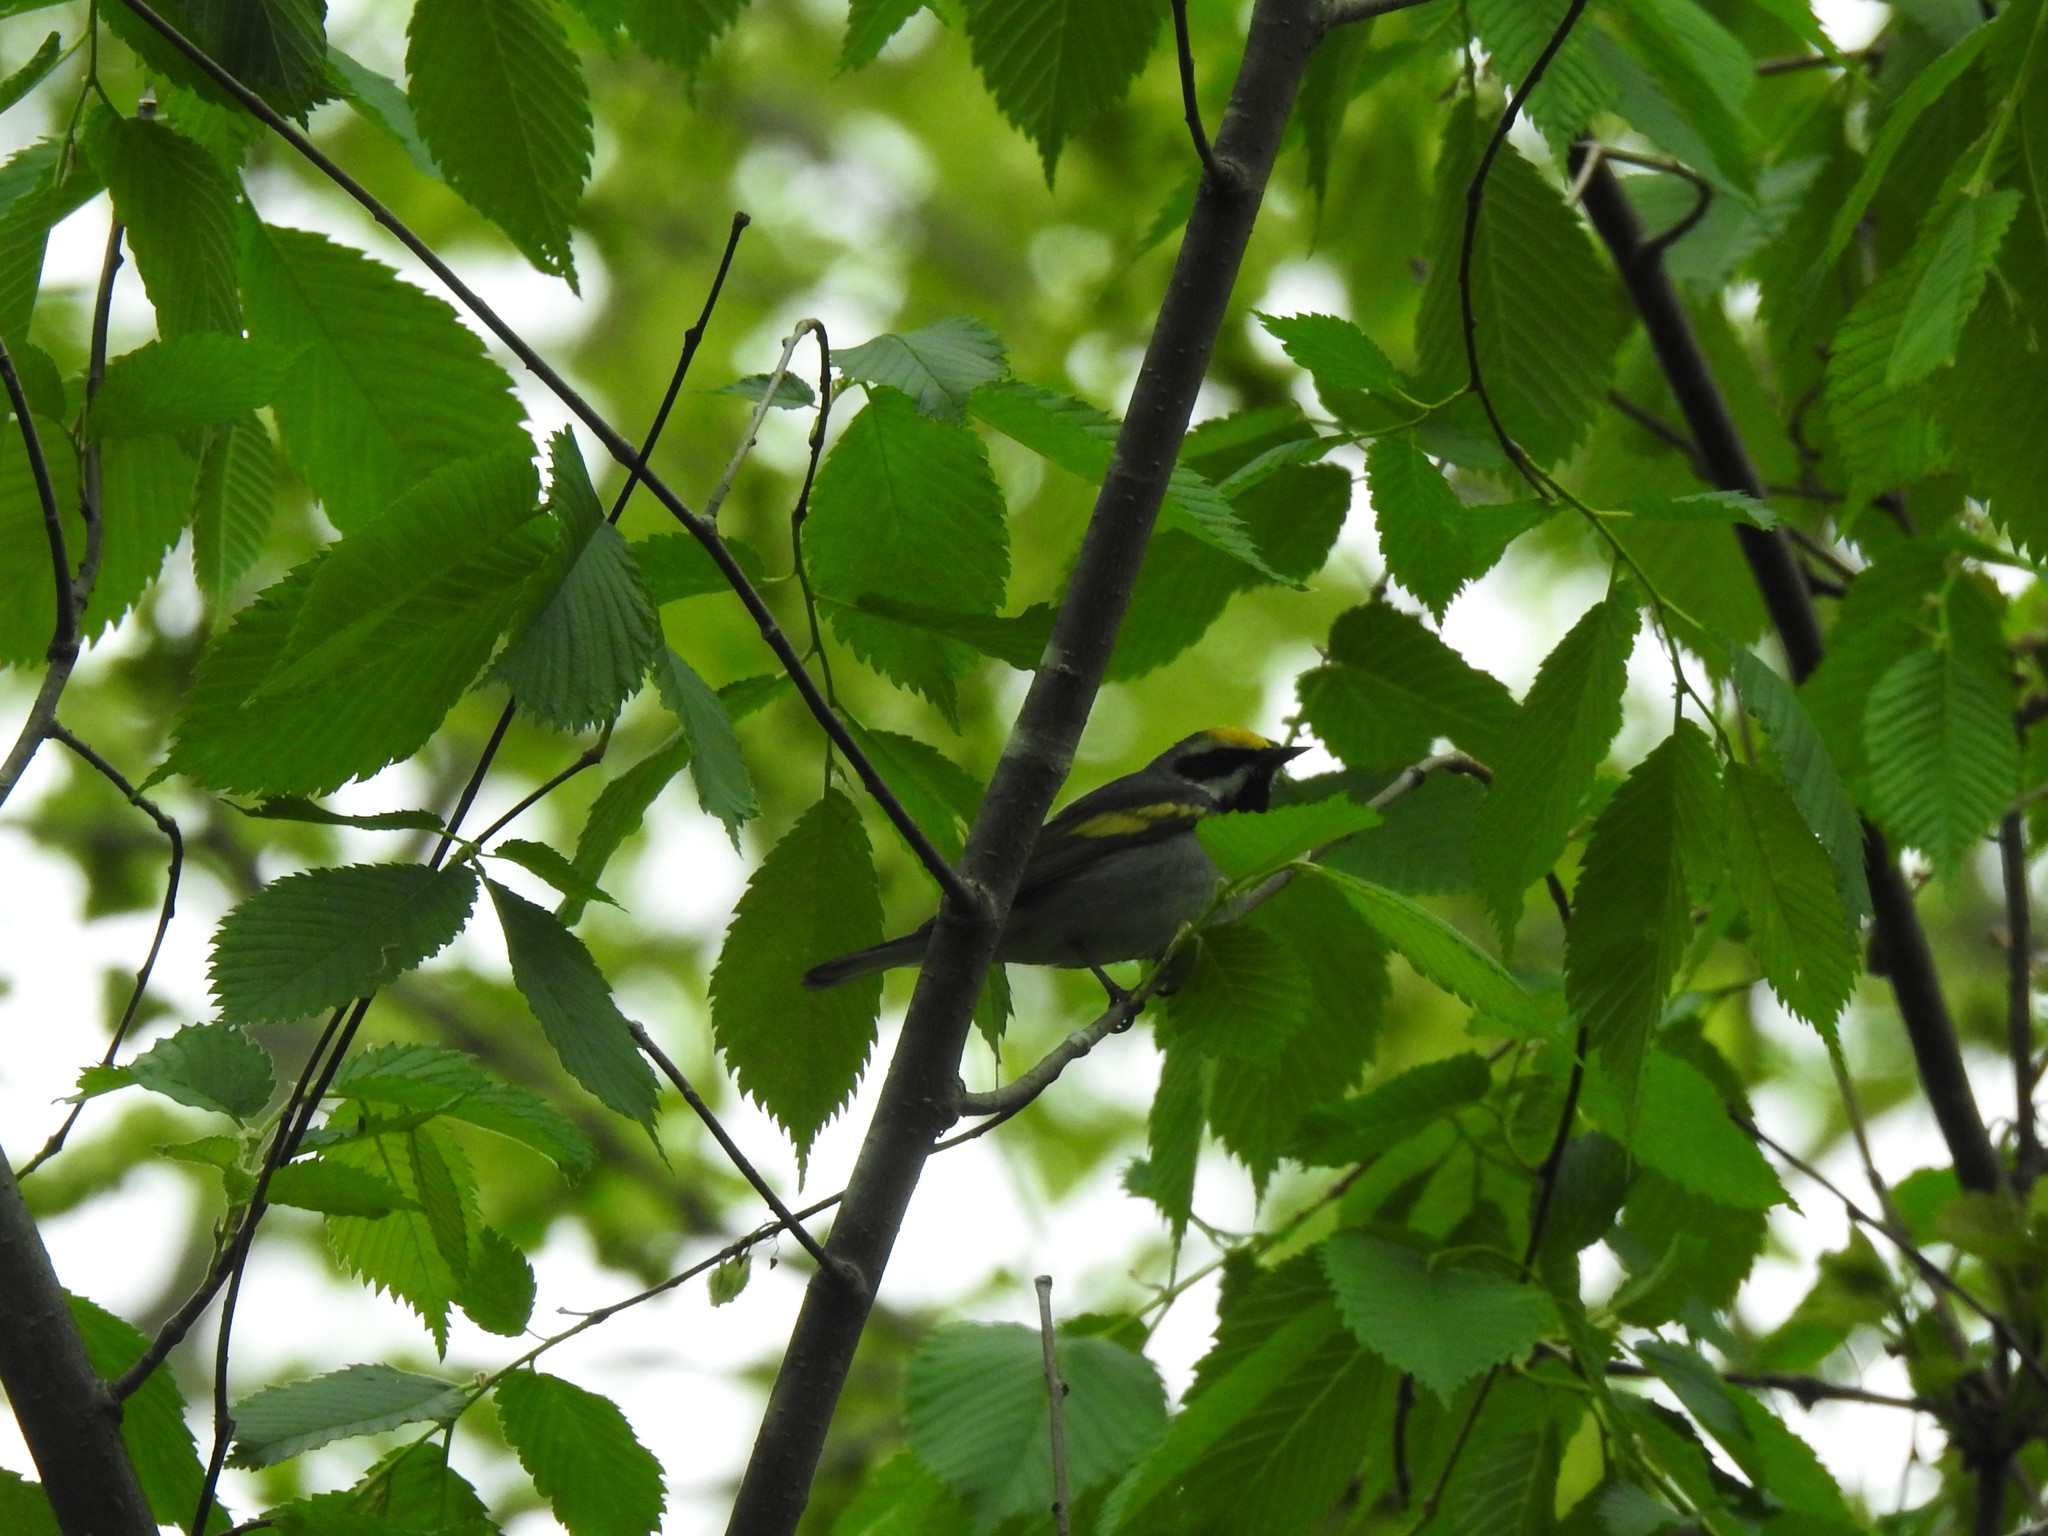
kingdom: Animalia
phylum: Chordata
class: Aves
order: Passeriformes
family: Parulidae
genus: Vermivora
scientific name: Vermivora chrysoptera
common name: Golden-winged warbler
